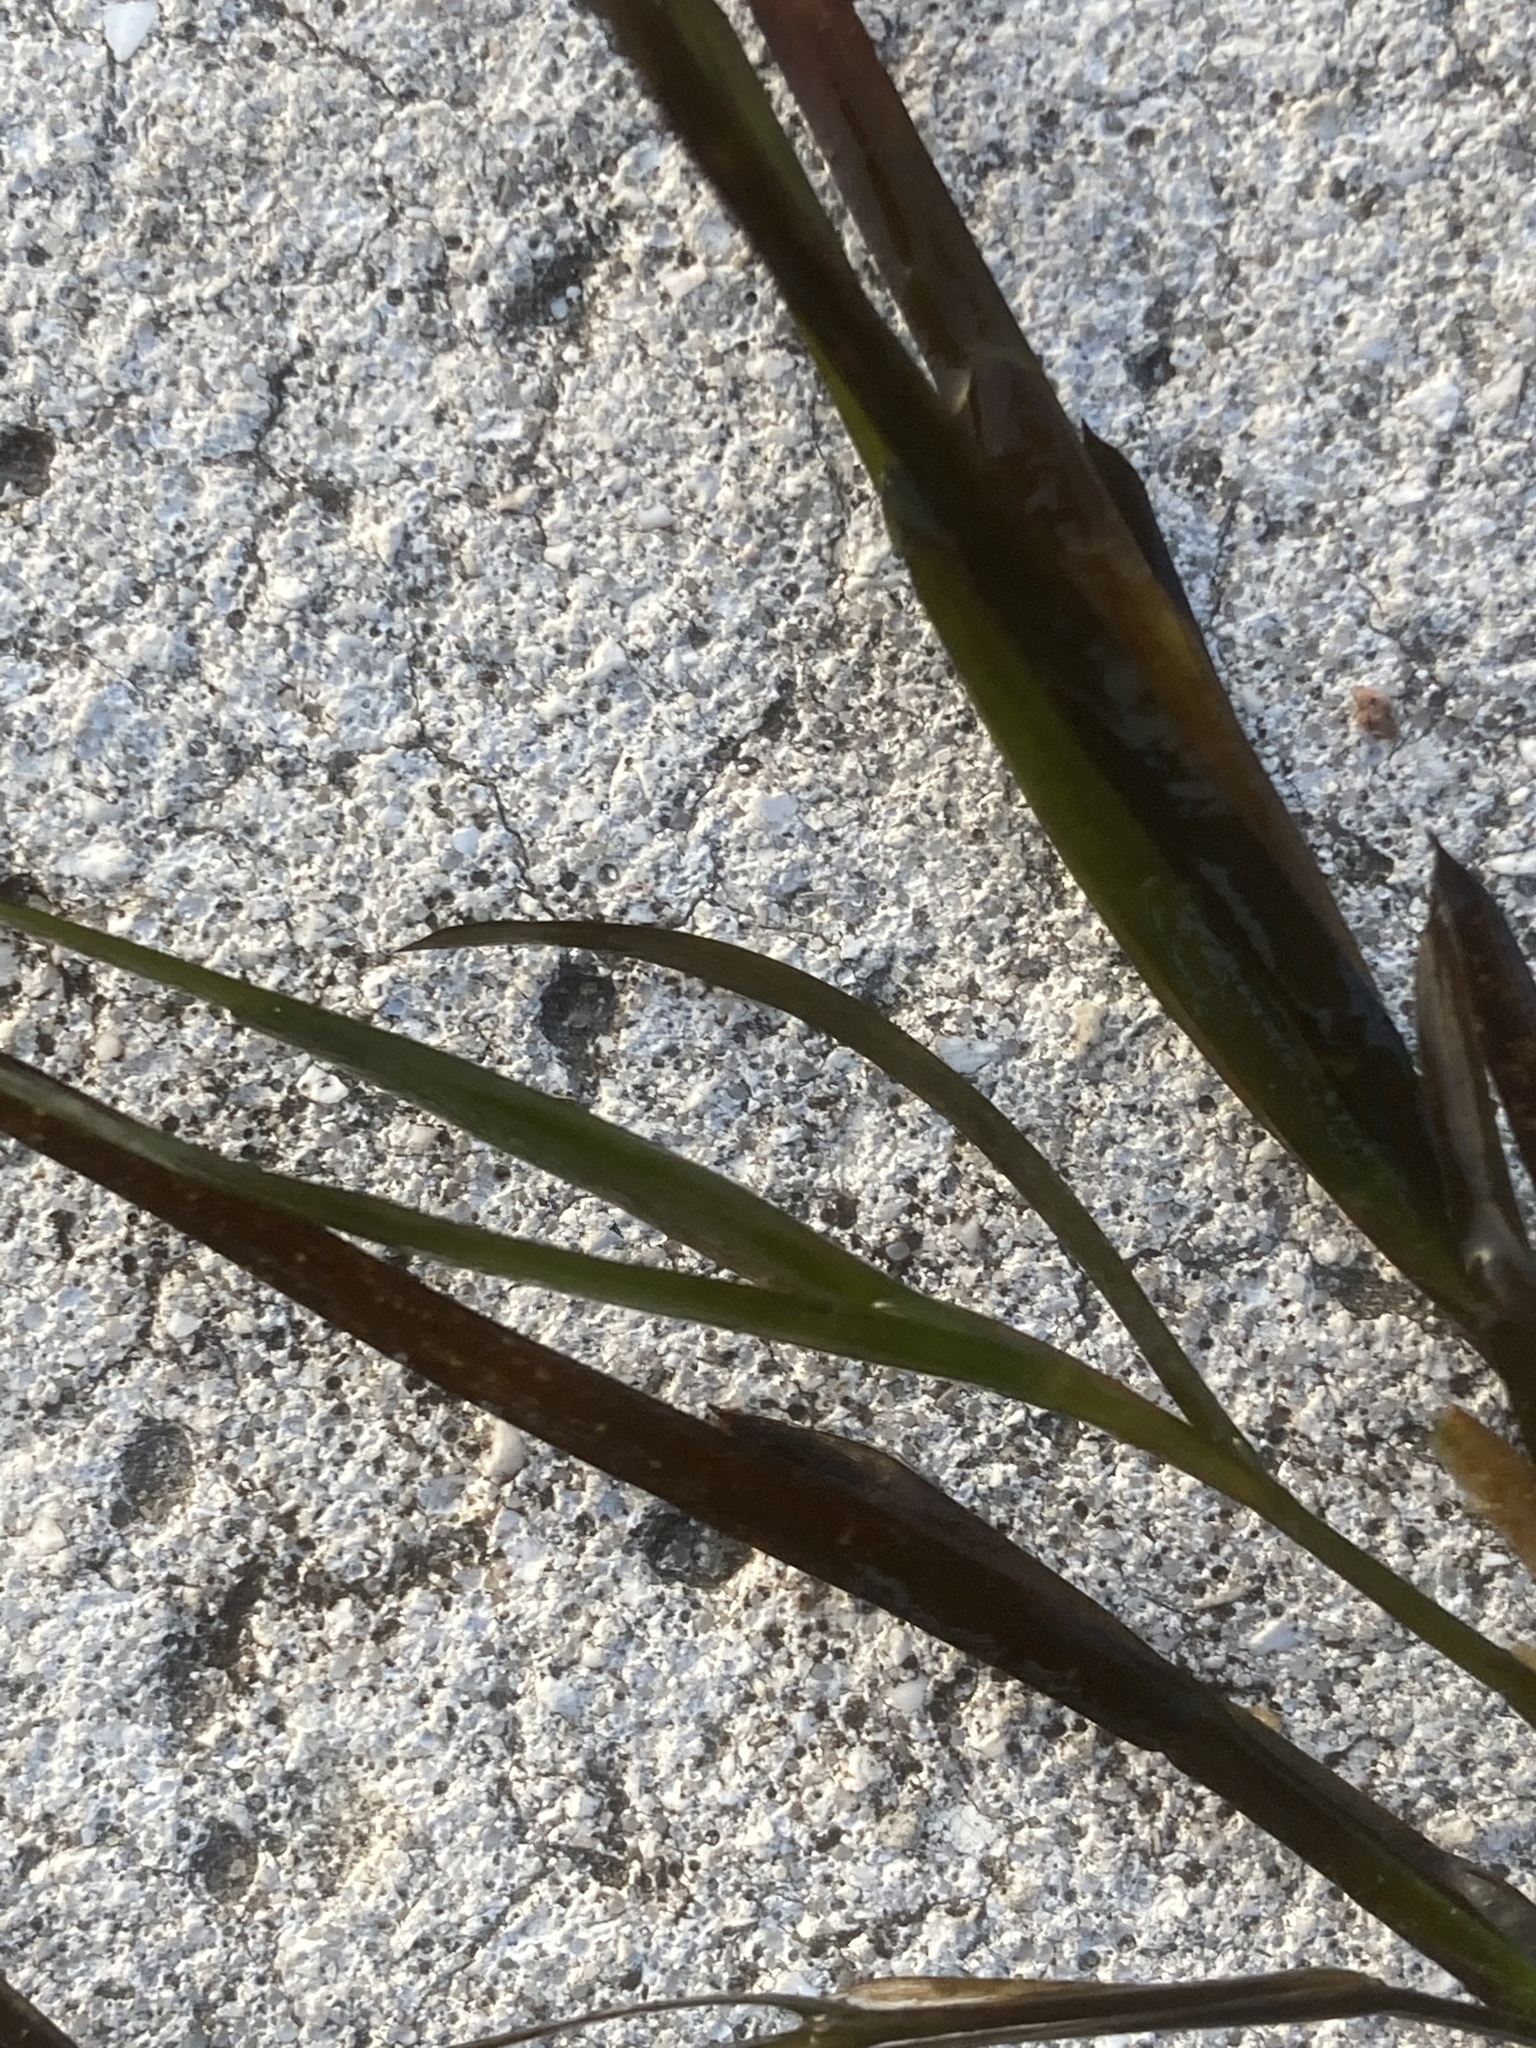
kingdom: Plantae
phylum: Tracheophyta
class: Liliopsida
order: Alismatales
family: Potamogetonaceae
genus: Potamogeton
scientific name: Potamogeton obtusifolius
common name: Blunt-leaved pondweed
